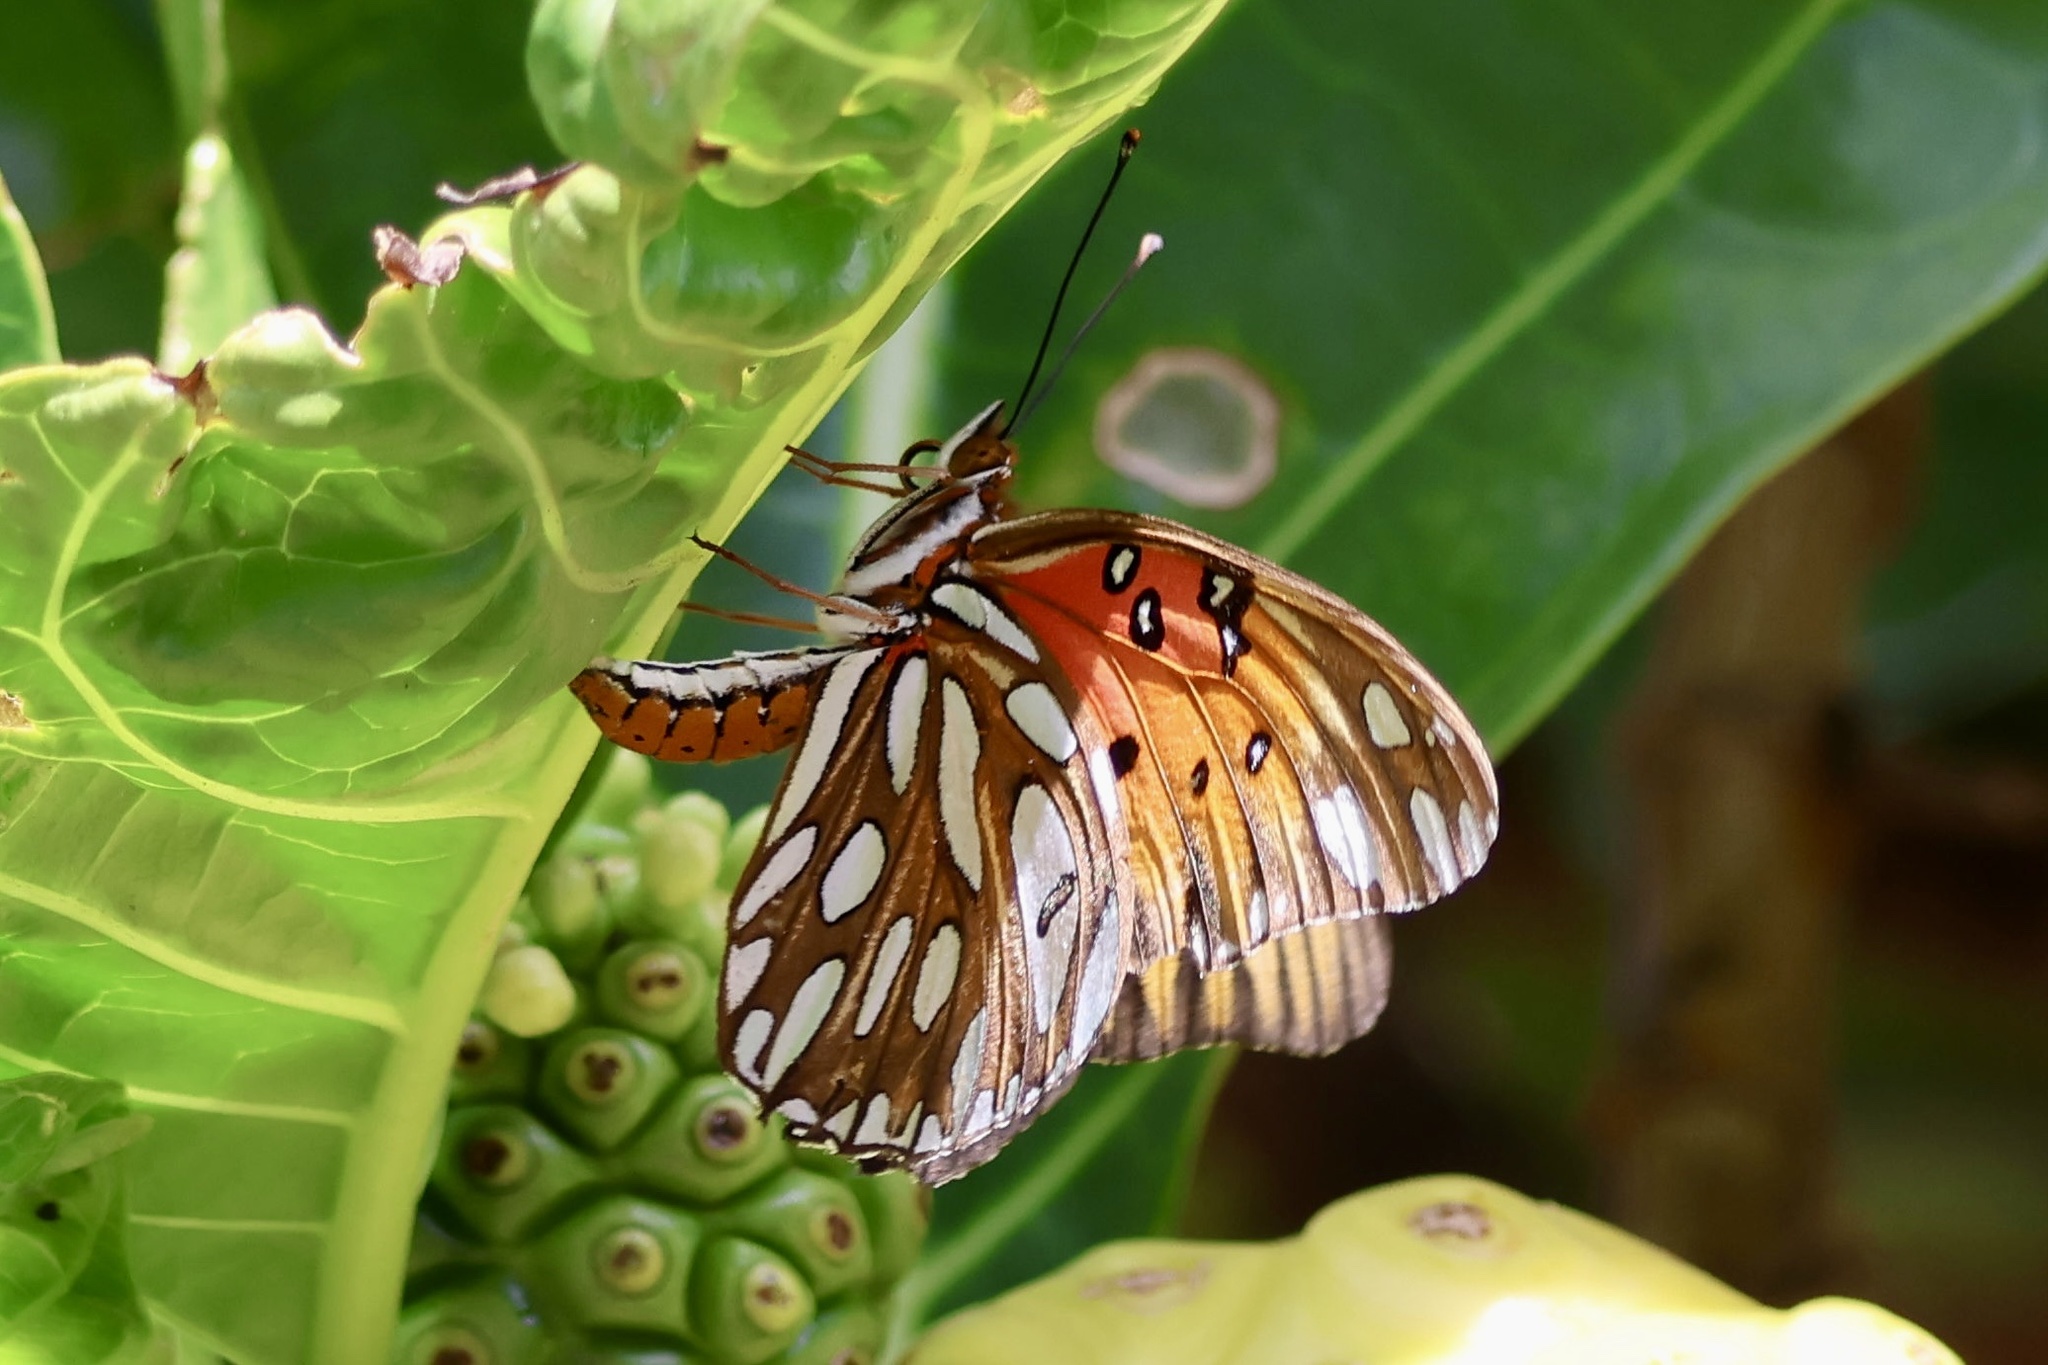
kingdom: Animalia
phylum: Arthropoda
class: Insecta
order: Lepidoptera
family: Nymphalidae
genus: Dione
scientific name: Dione vanillae
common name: Gulf fritillary
